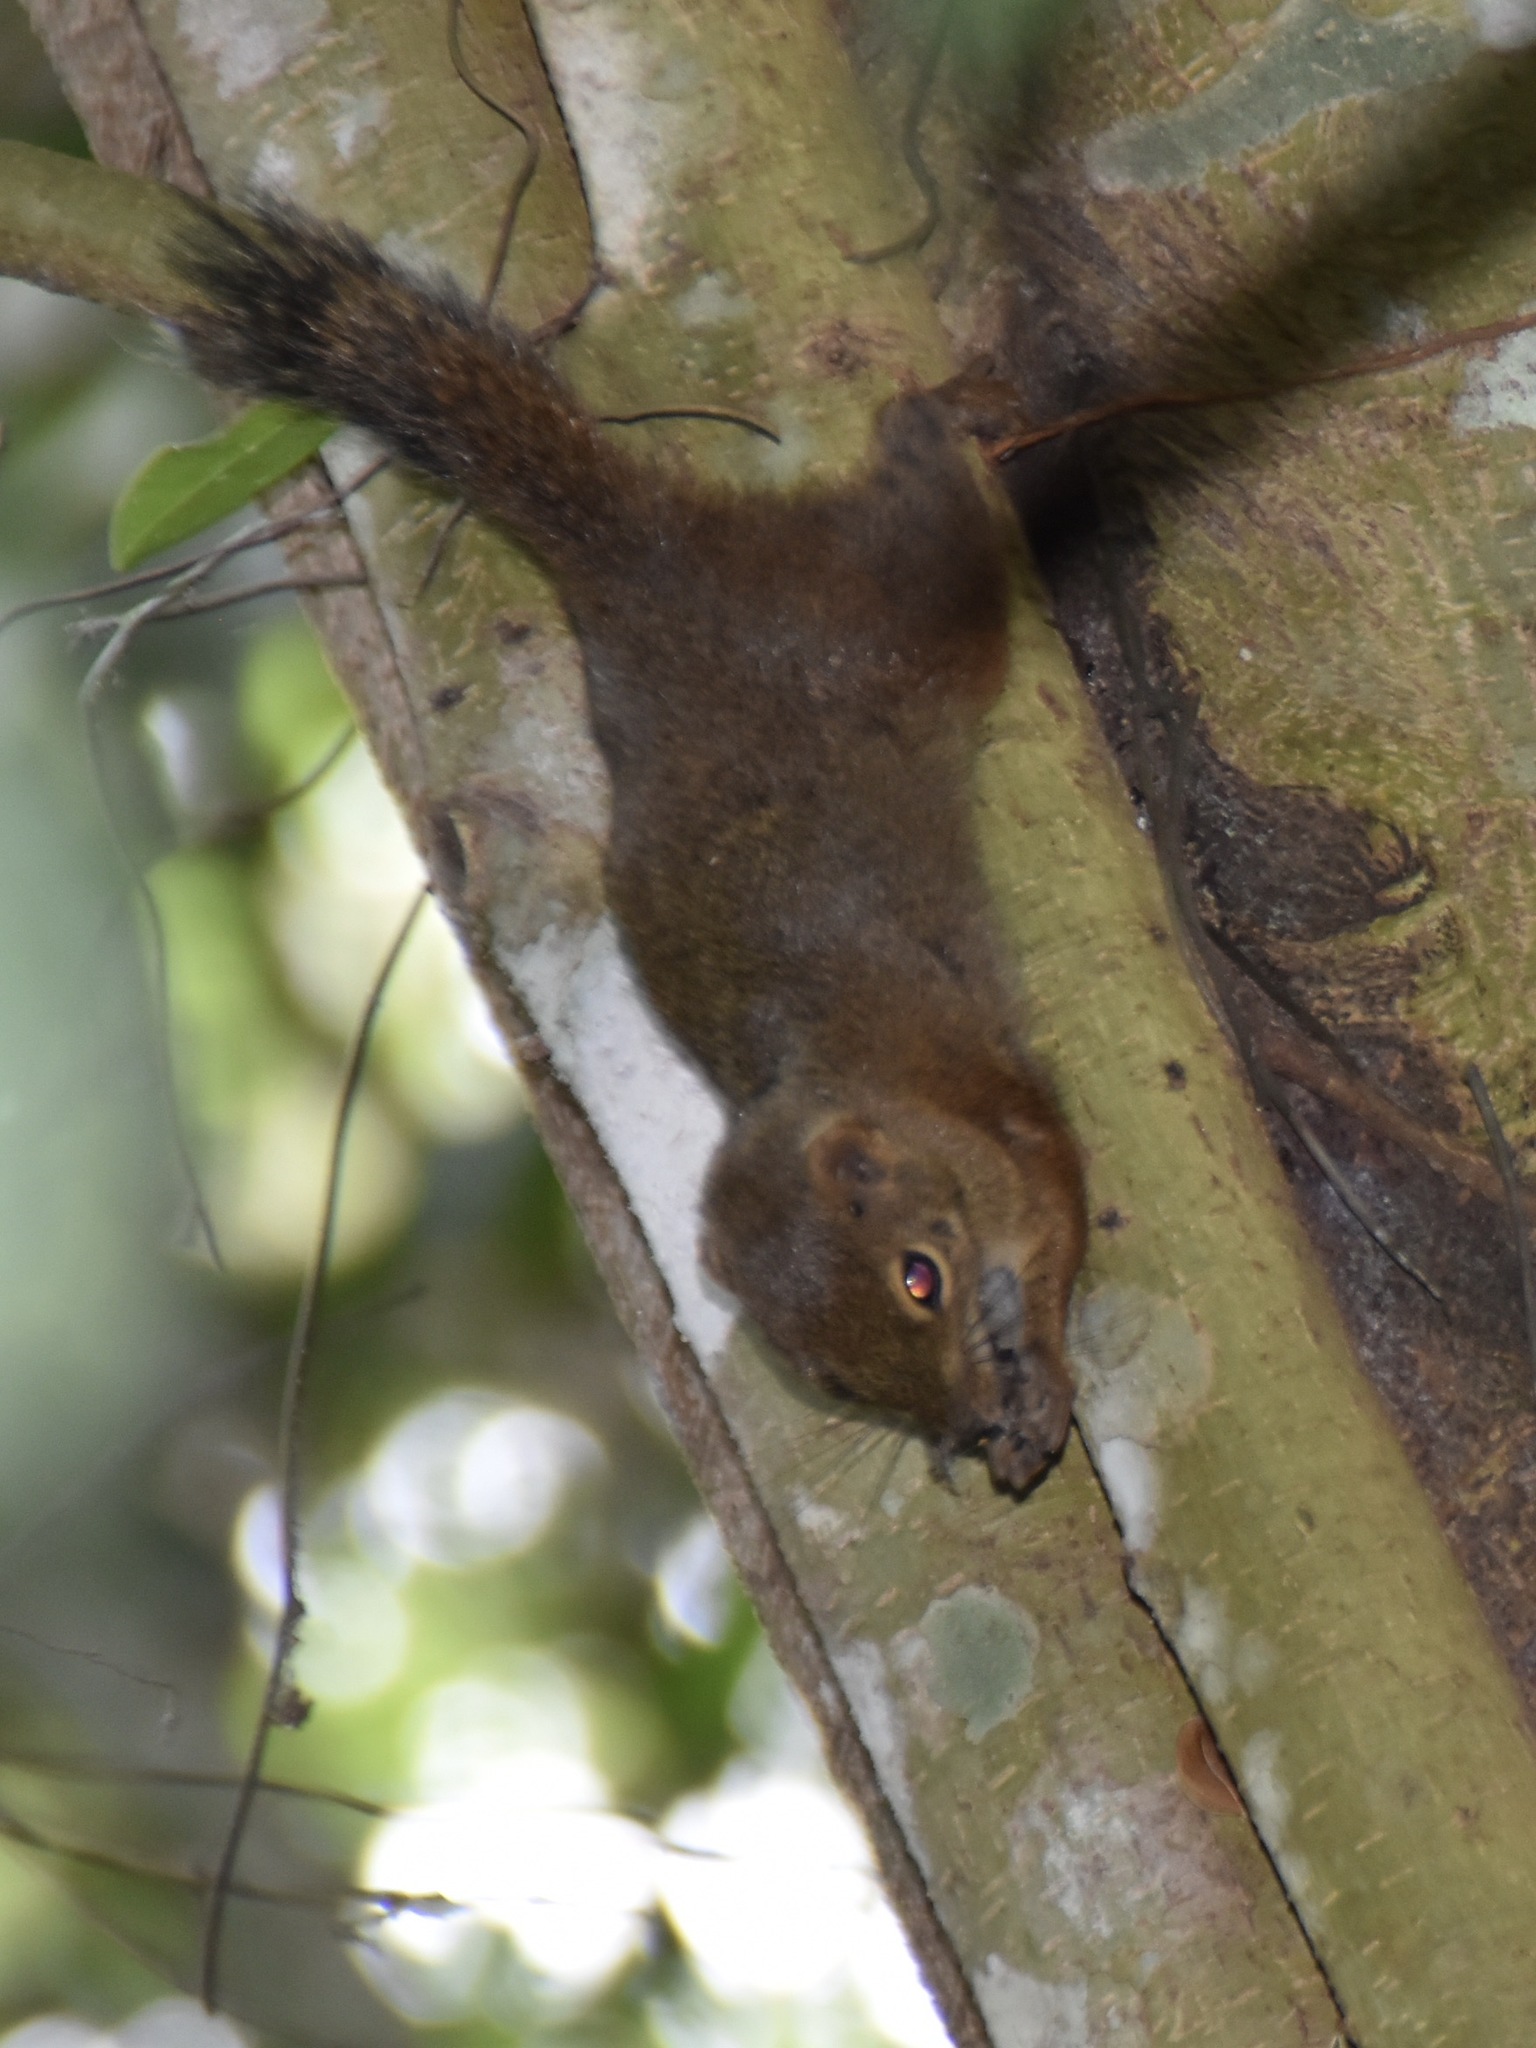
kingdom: Animalia
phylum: Chordata
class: Mammalia
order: Rodentia
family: Sciuridae
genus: Sundasciurus
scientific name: Sundasciurus tenuis
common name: Slender squirrel
